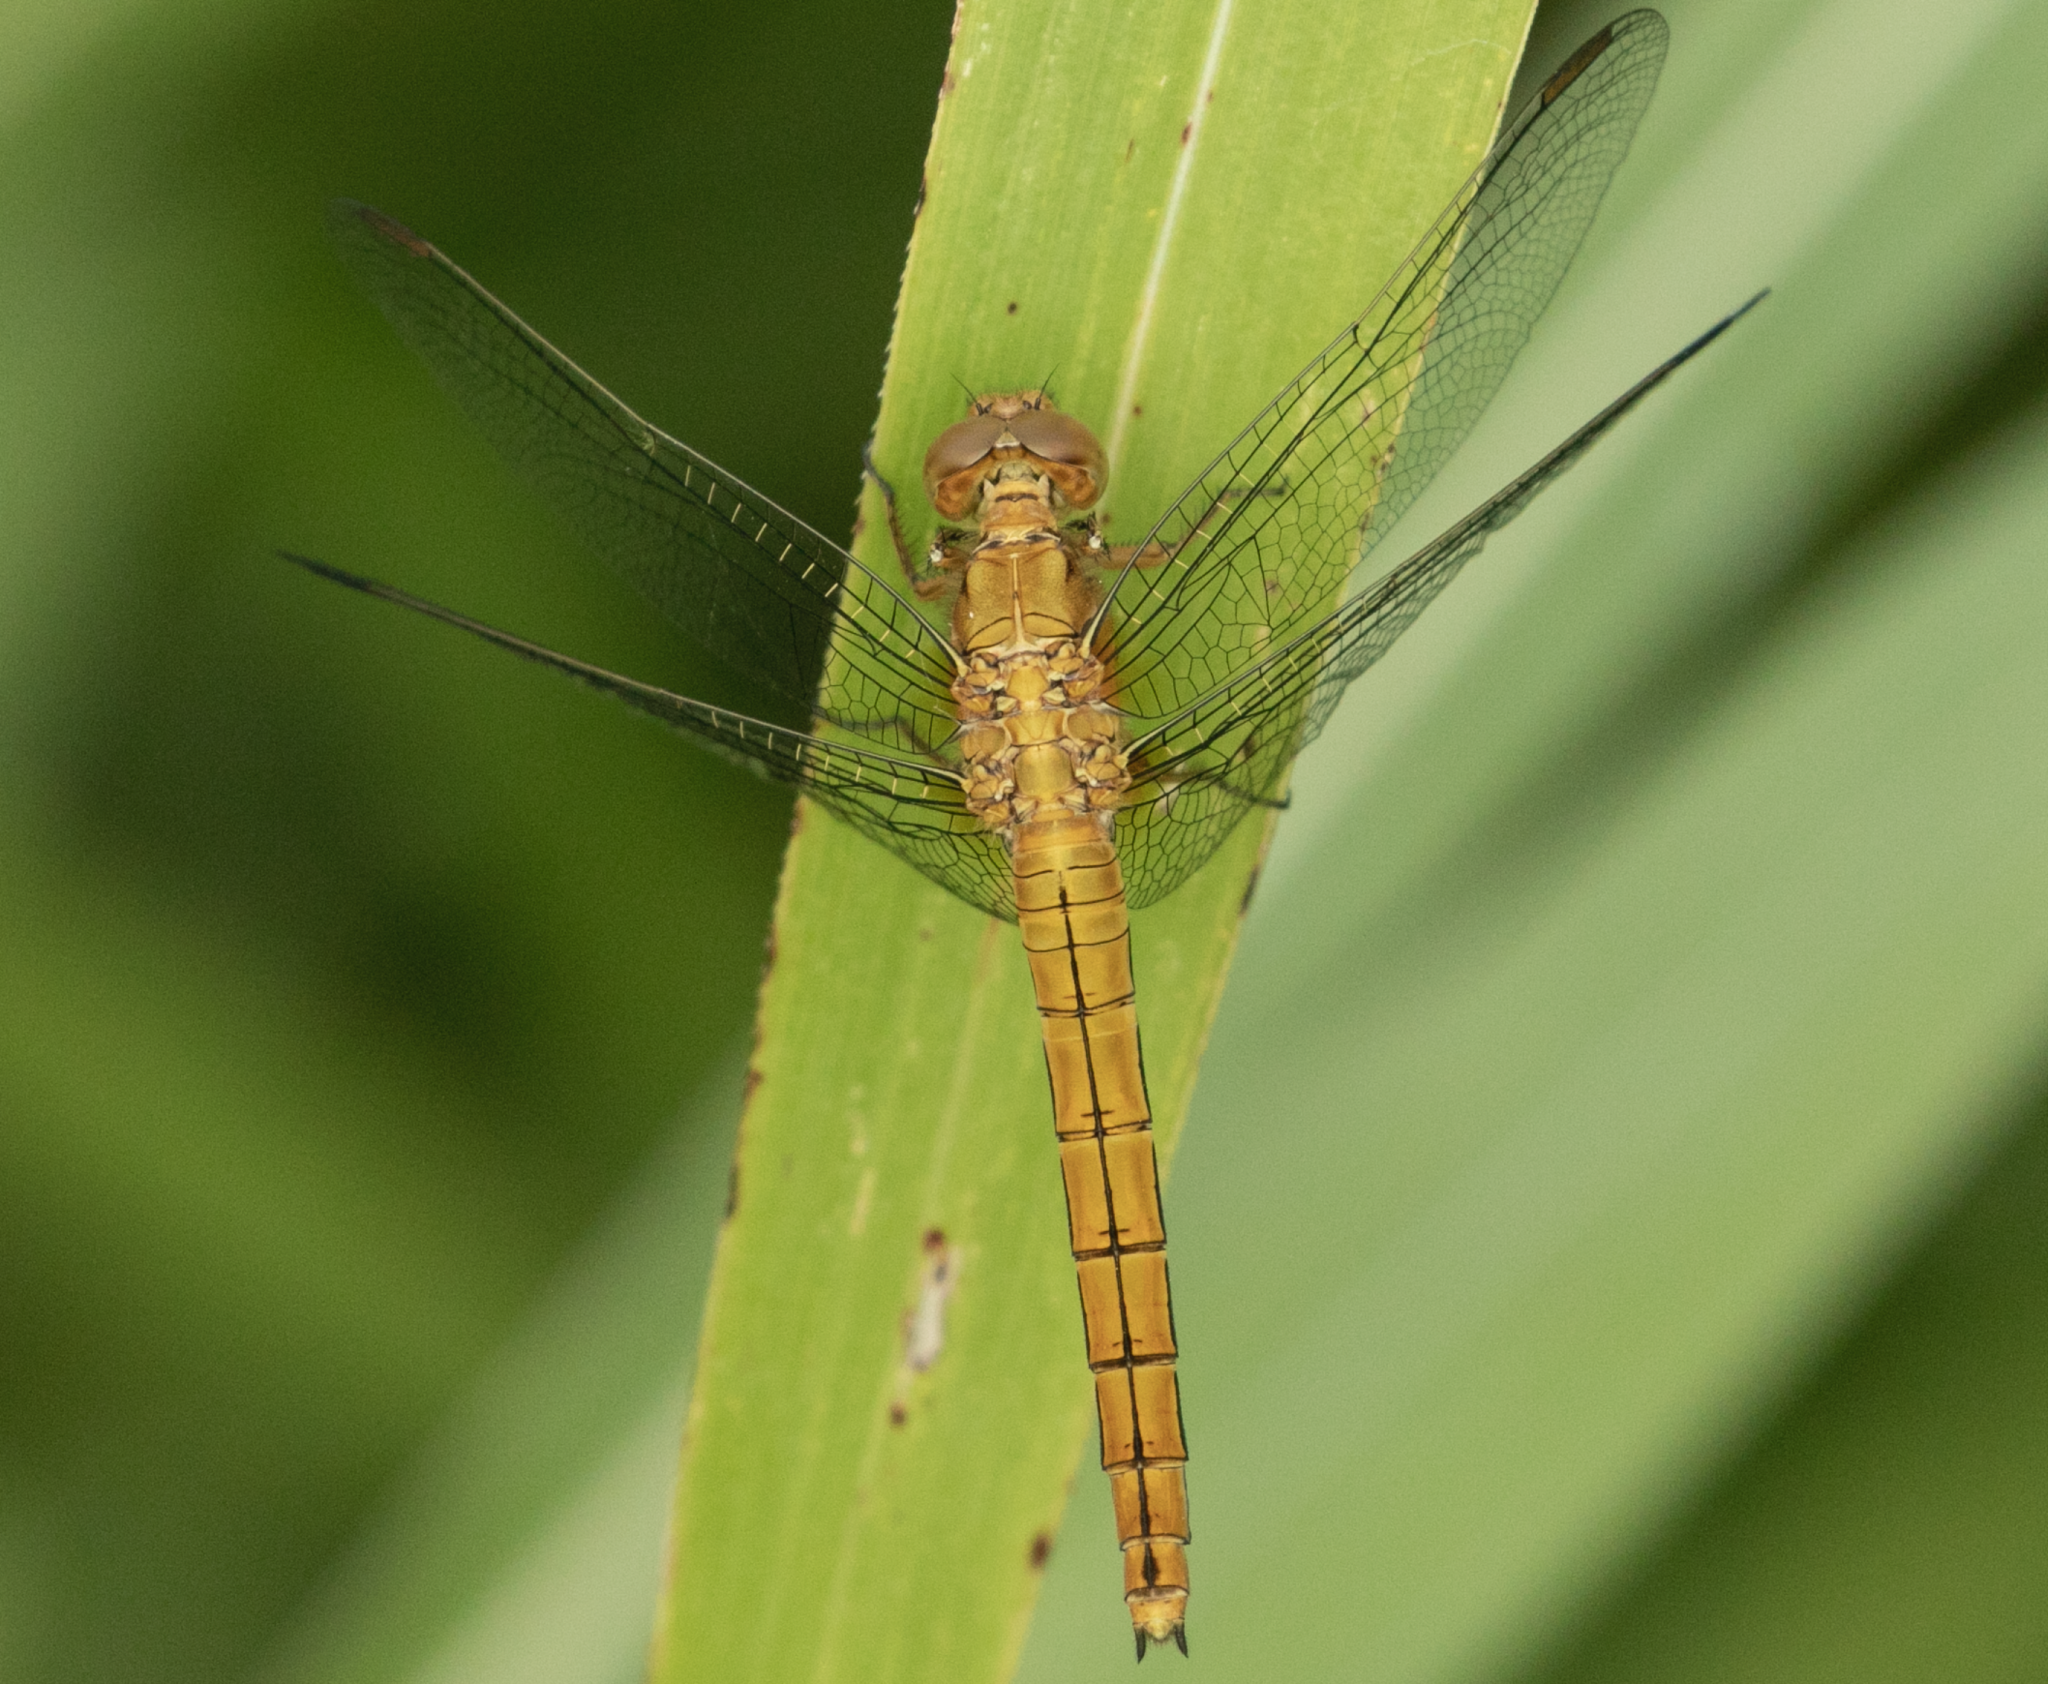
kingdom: Animalia
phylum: Arthropoda
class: Insecta
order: Odonata
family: Libellulidae
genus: Orthetrum
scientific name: Orthetrum coerulescens
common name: Keeled skimmer
